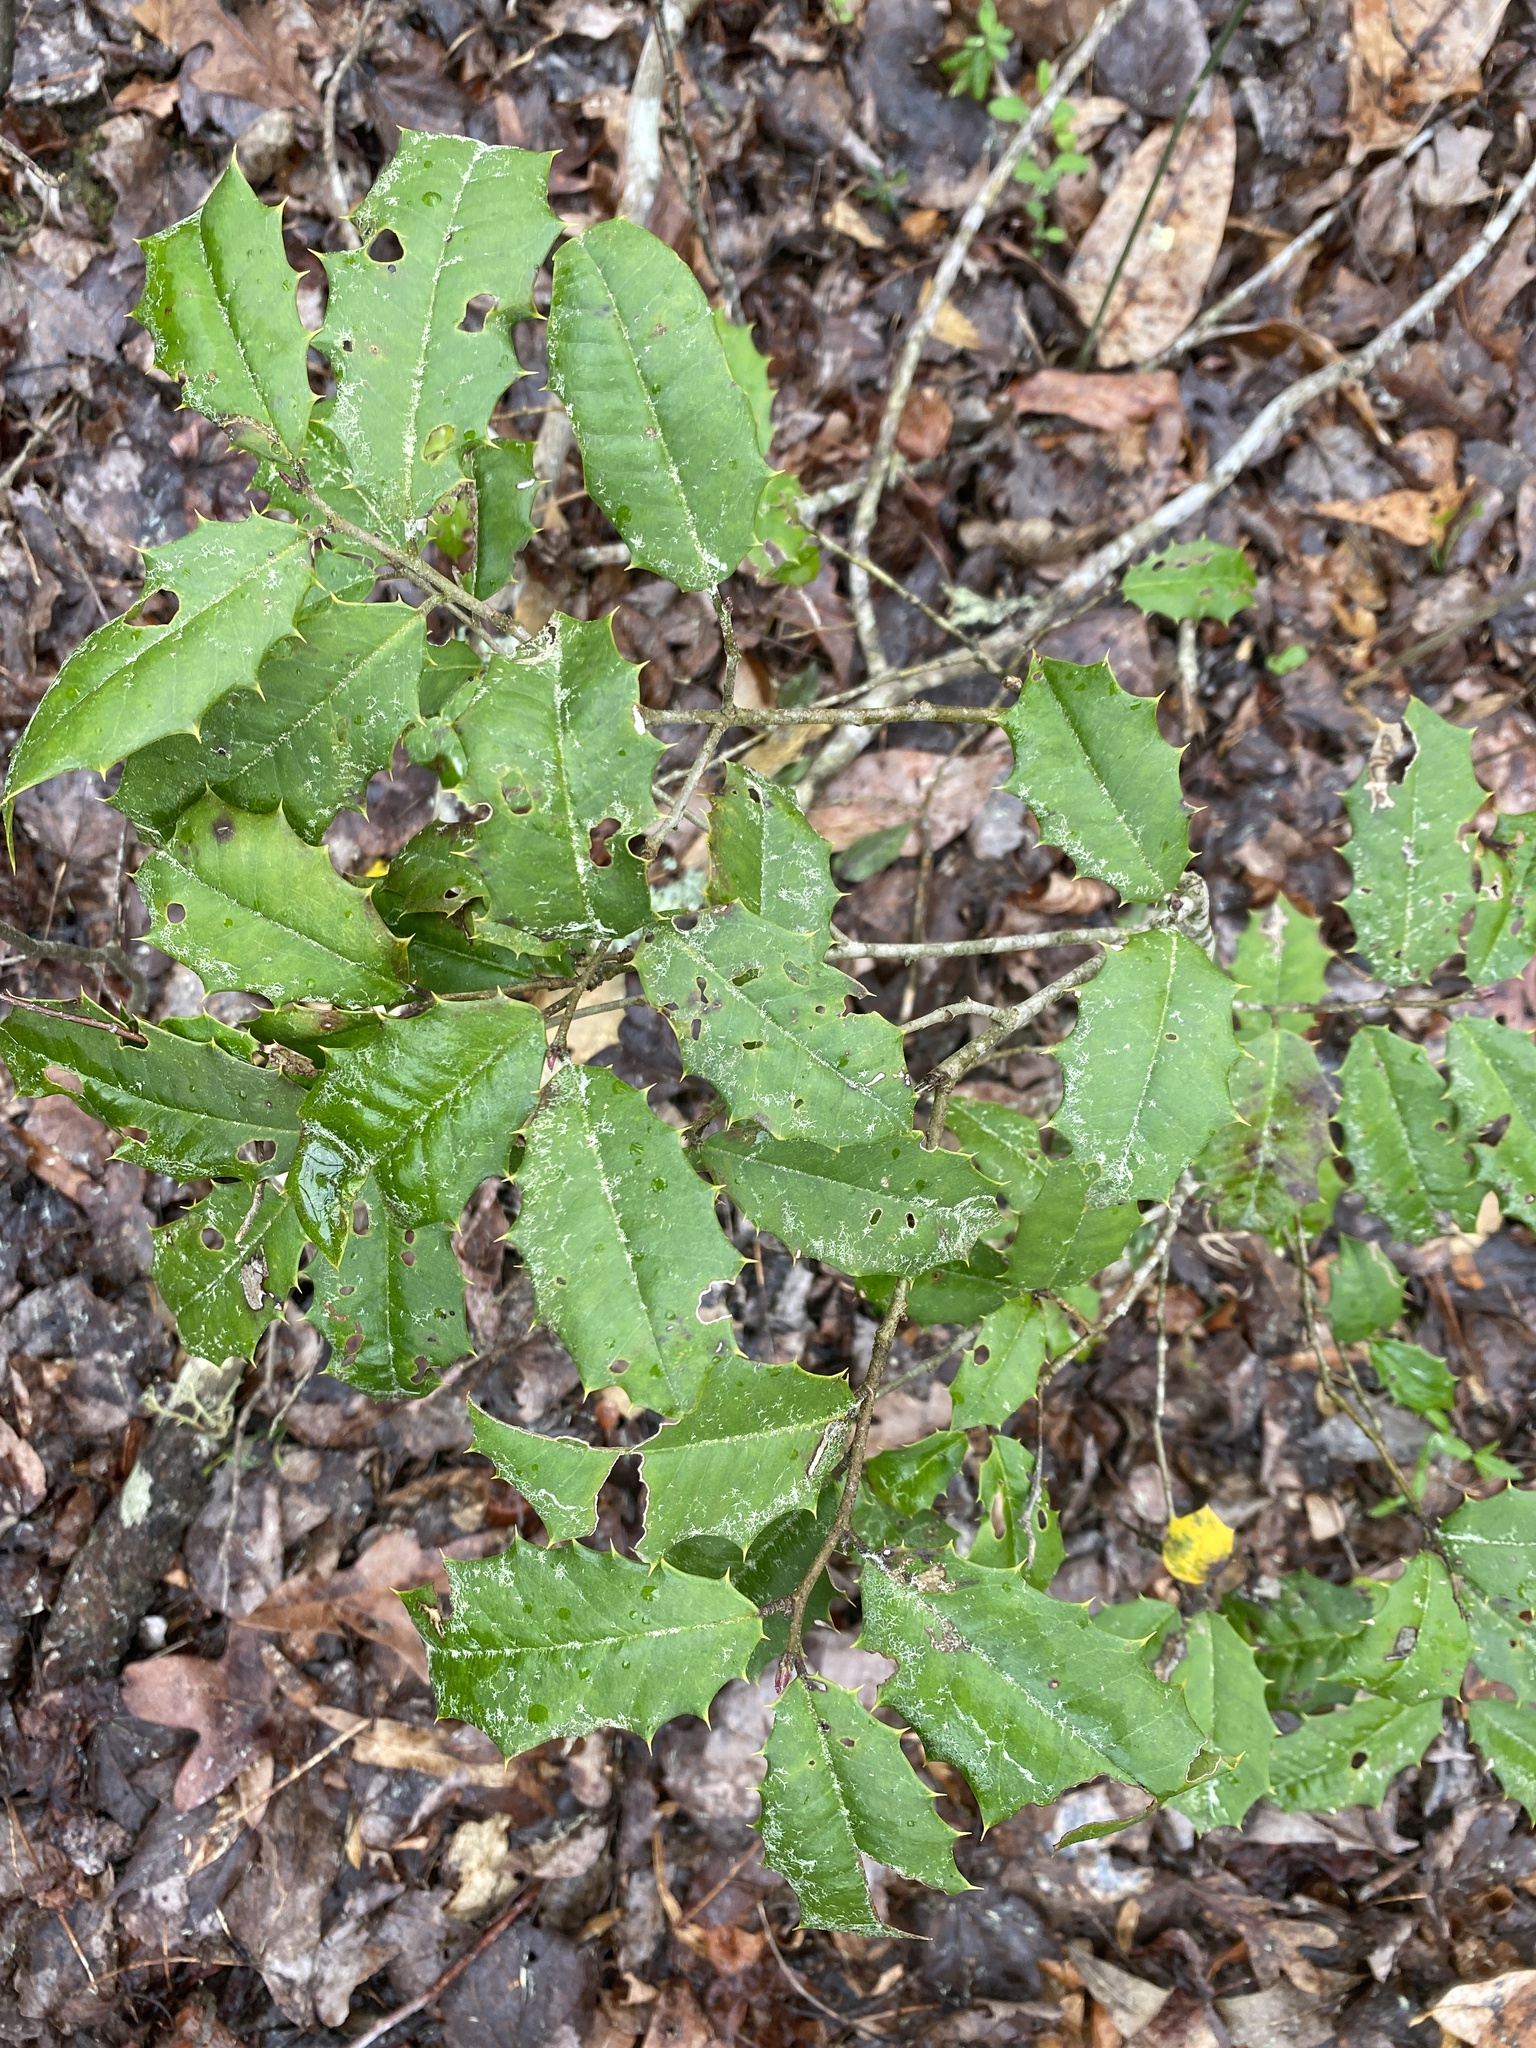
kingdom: Plantae
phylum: Tracheophyta
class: Magnoliopsida
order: Aquifoliales
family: Aquifoliaceae
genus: Ilex
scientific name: Ilex opaca
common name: American holly
